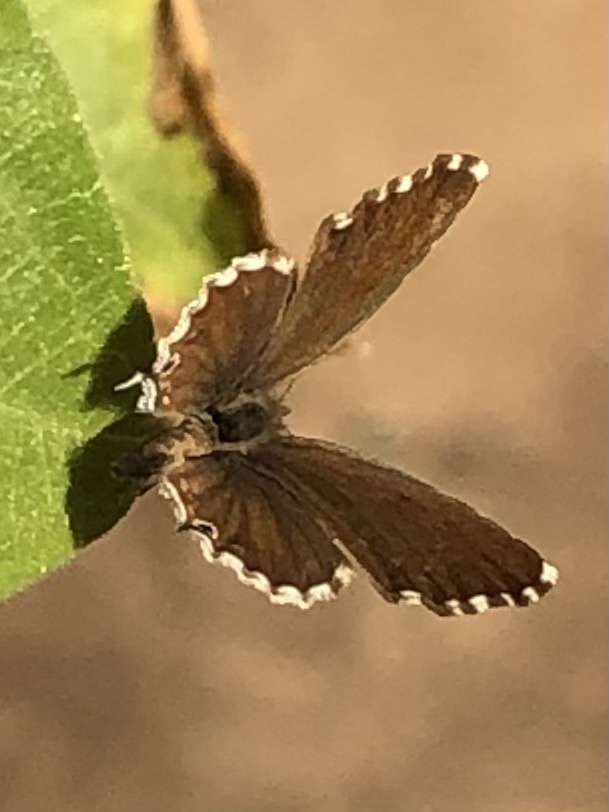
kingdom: Animalia
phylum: Arthropoda
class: Insecta
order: Lepidoptera
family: Lycaenidae
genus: Cacyreus
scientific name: Cacyreus marshalli
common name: Geranium bronze
